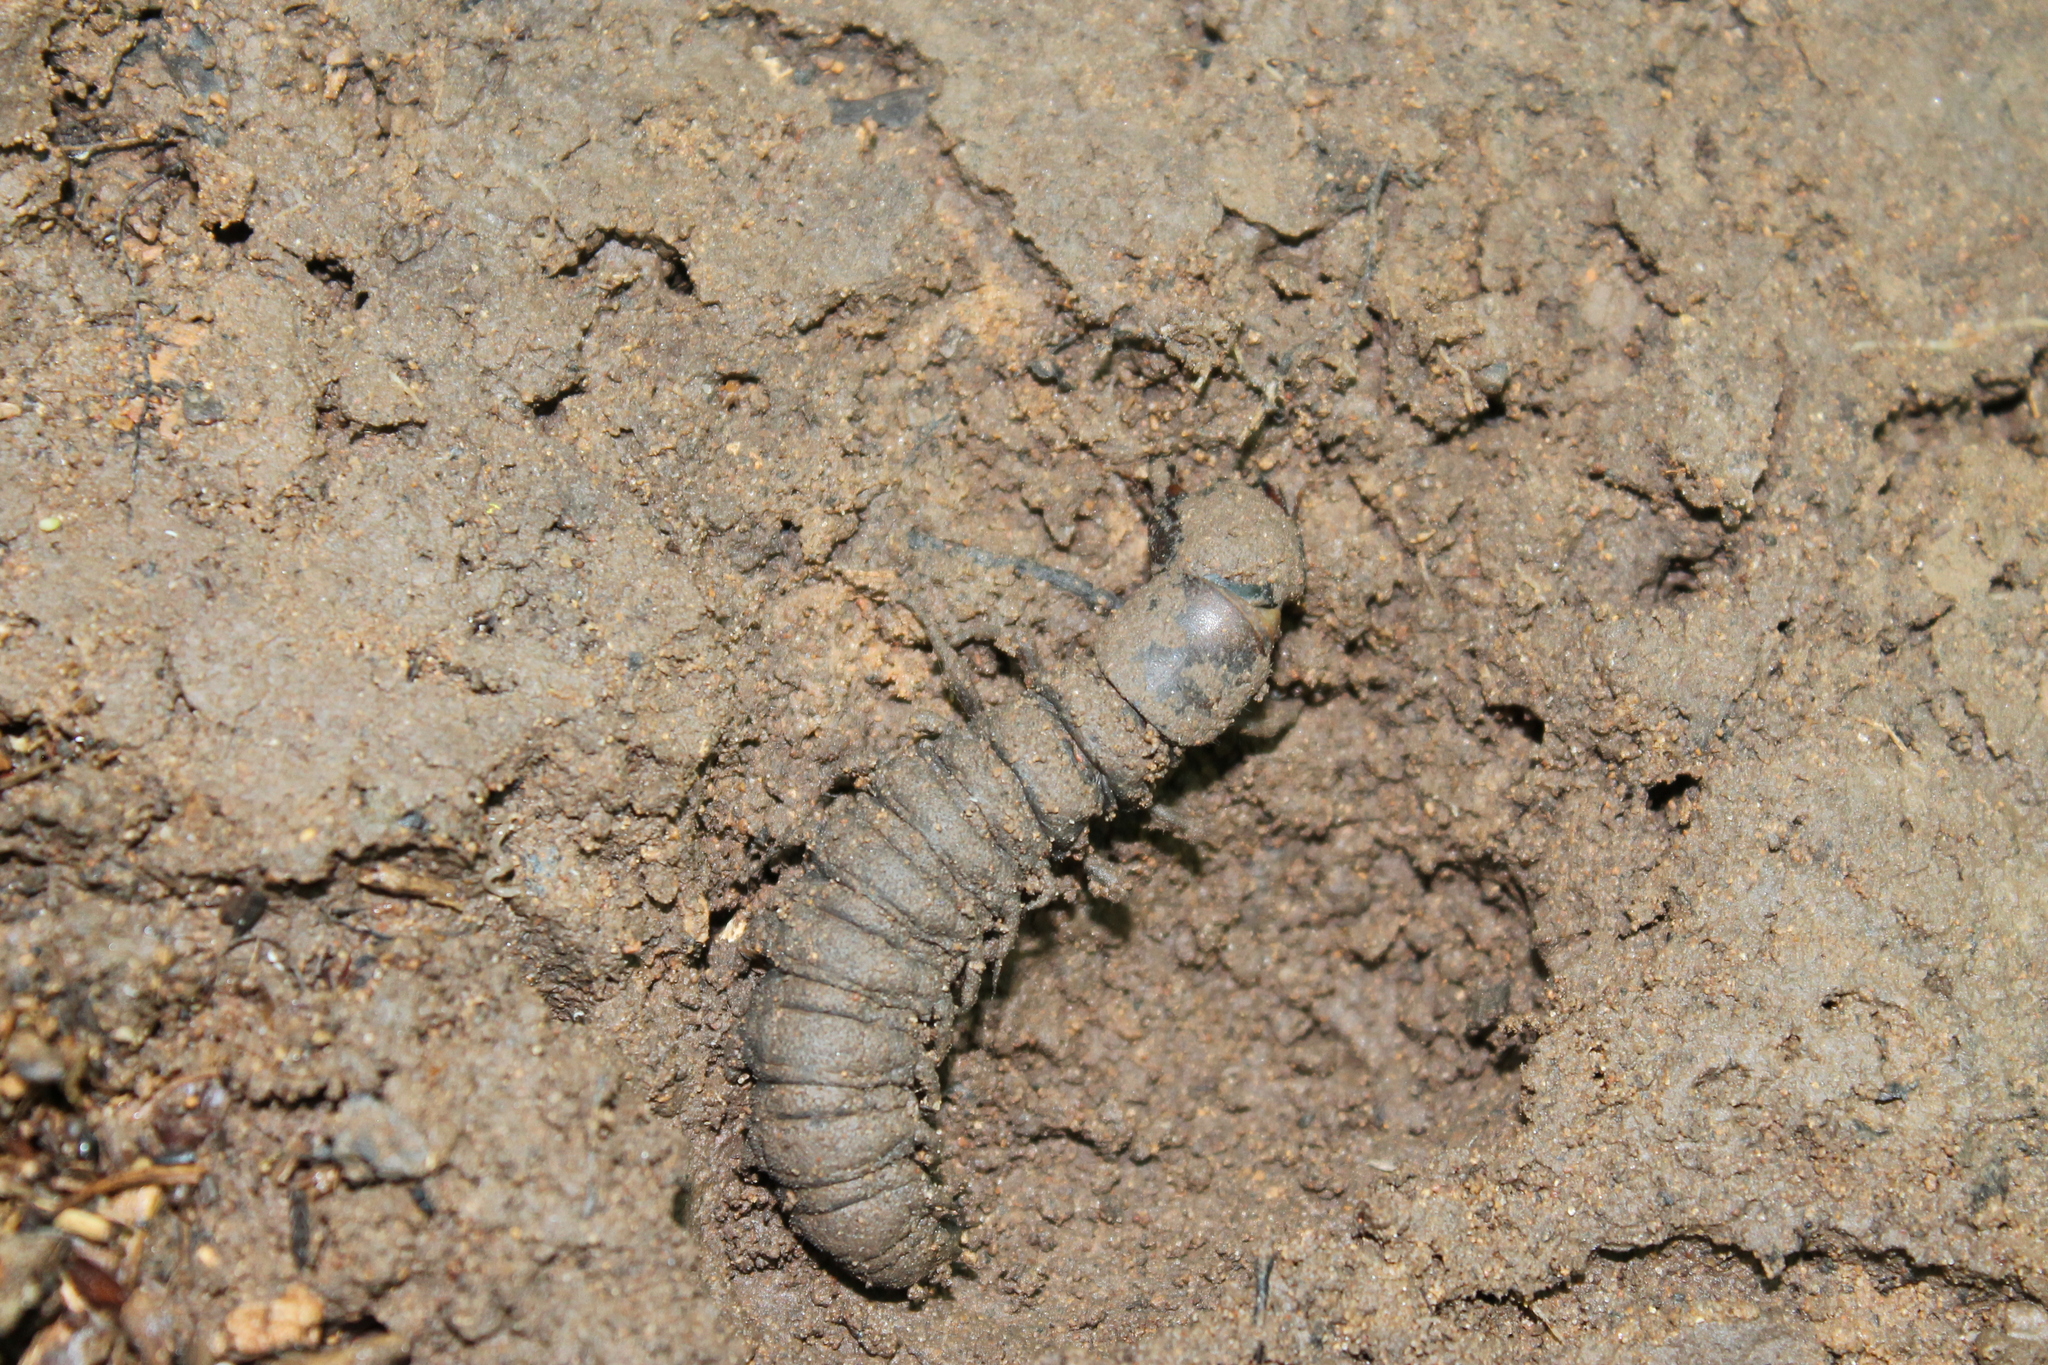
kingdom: Animalia
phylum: Arthropoda
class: Insecta
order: Megaloptera
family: Corydalidae
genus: Corydalus
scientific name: Corydalus cornutus
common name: Dobsonfly
